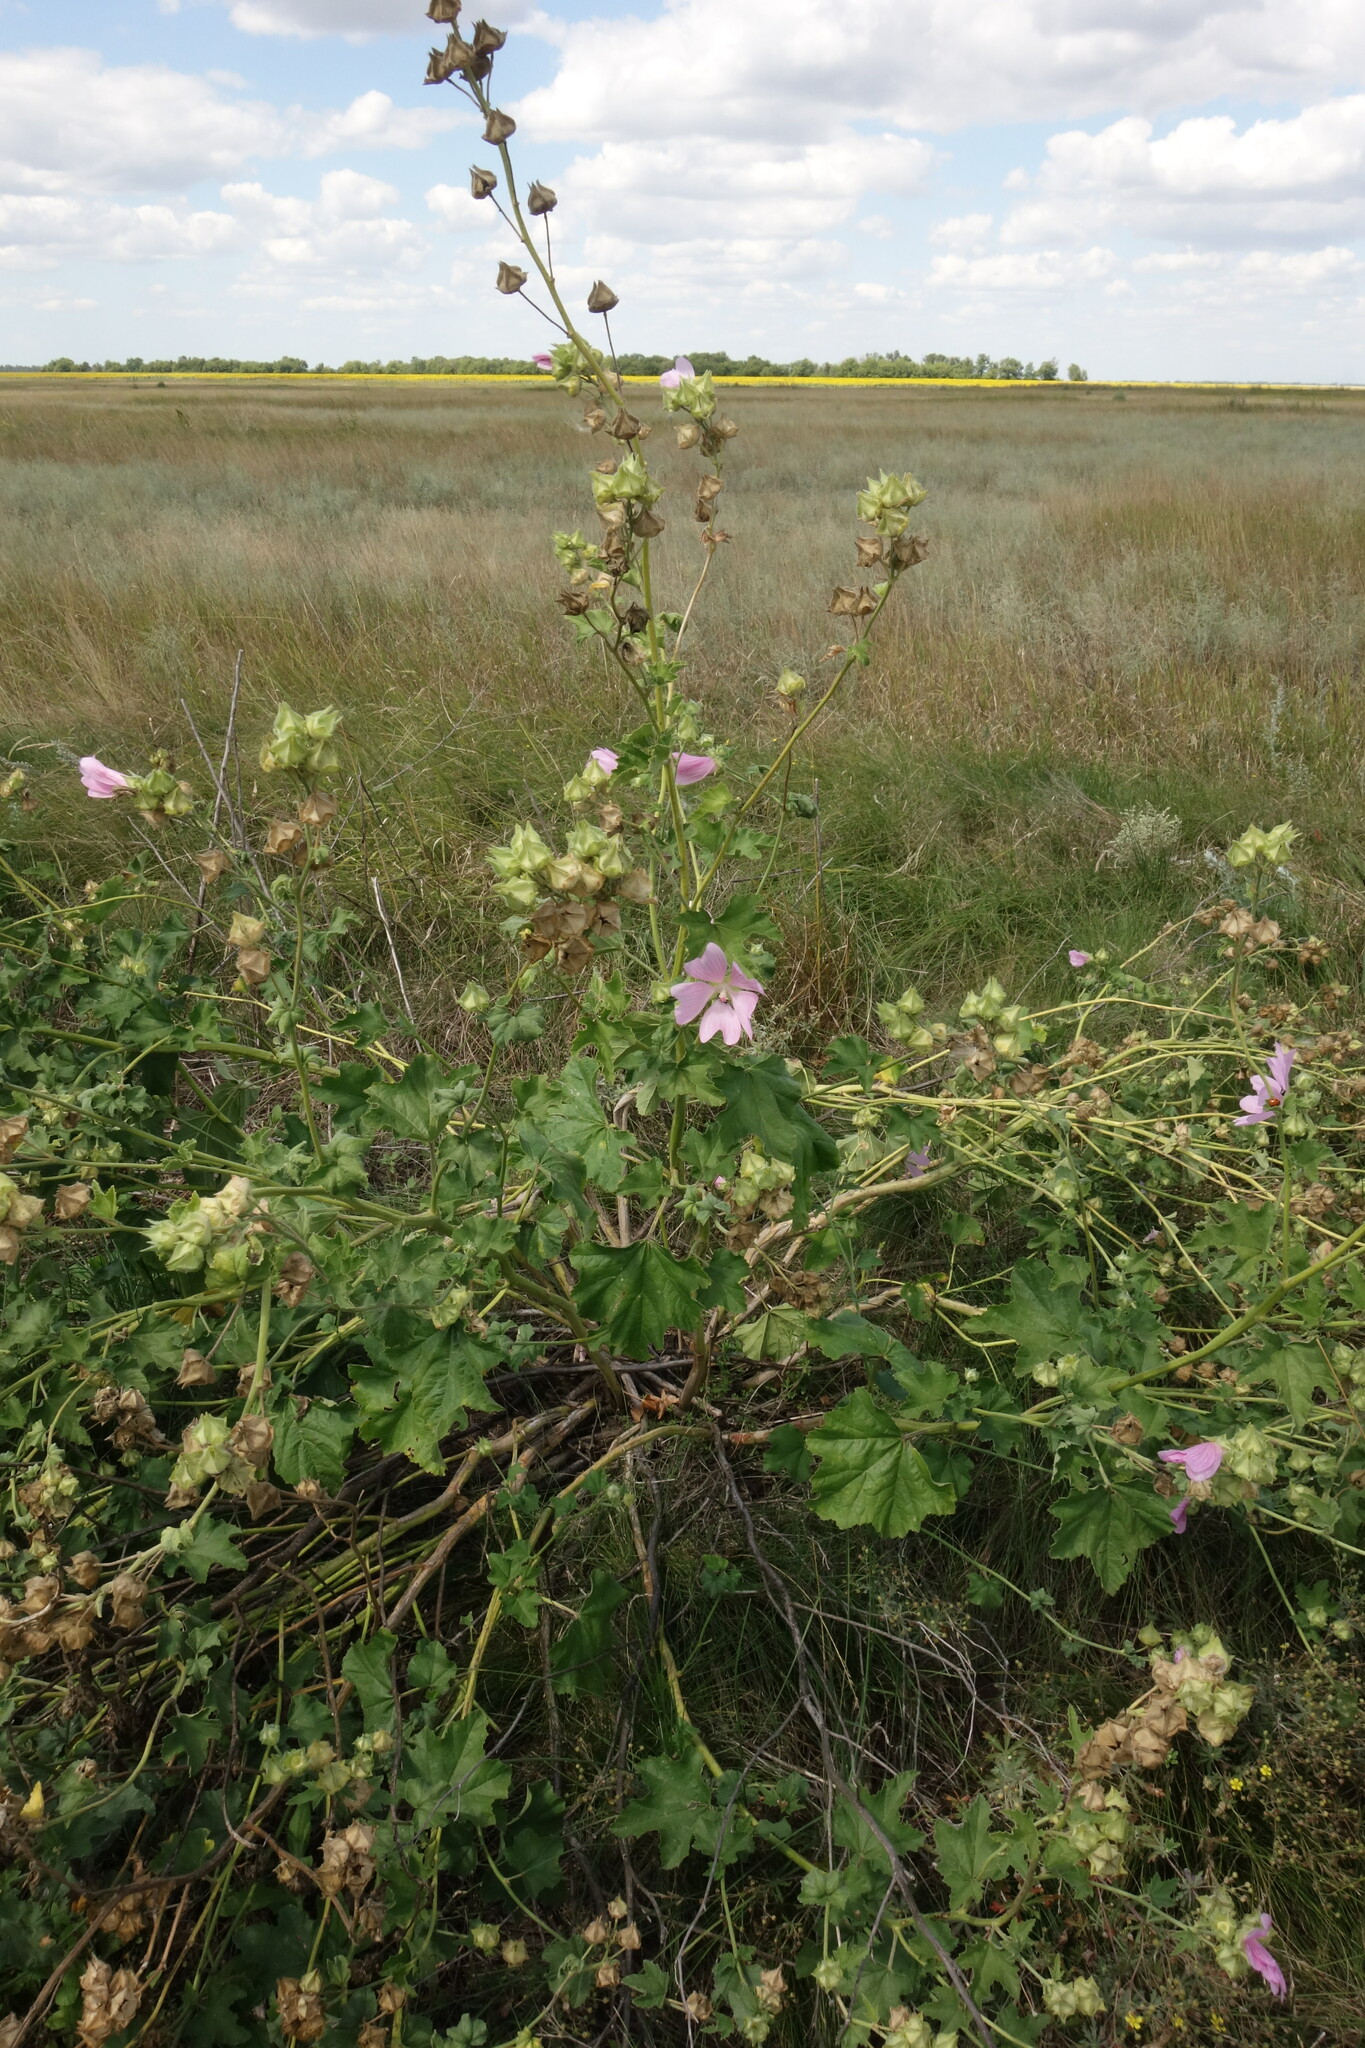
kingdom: Plantae
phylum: Tracheophyta
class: Magnoliopsida
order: Malvales
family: Malvaceae
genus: Malva
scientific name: Malva thuringiaca
